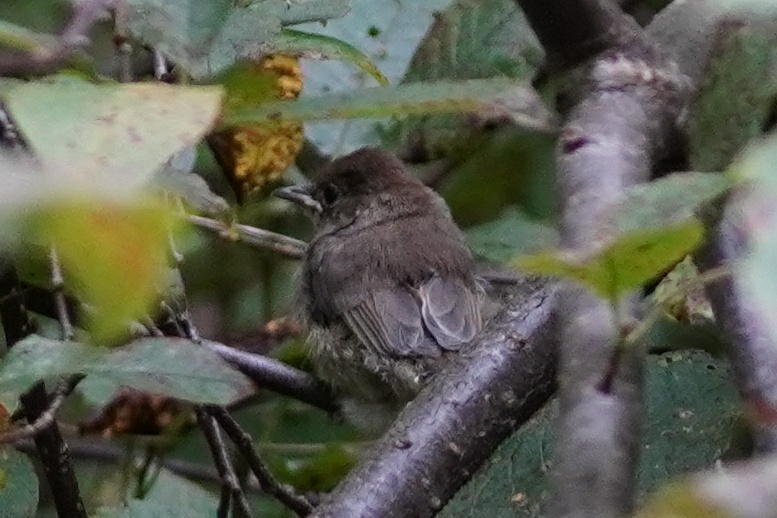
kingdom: Animalia
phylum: Chordata
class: Aves
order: Passeriformes
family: Sylviidae
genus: Sylvia
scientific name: Sylvia atricapilla
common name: Eurasian blackcap
